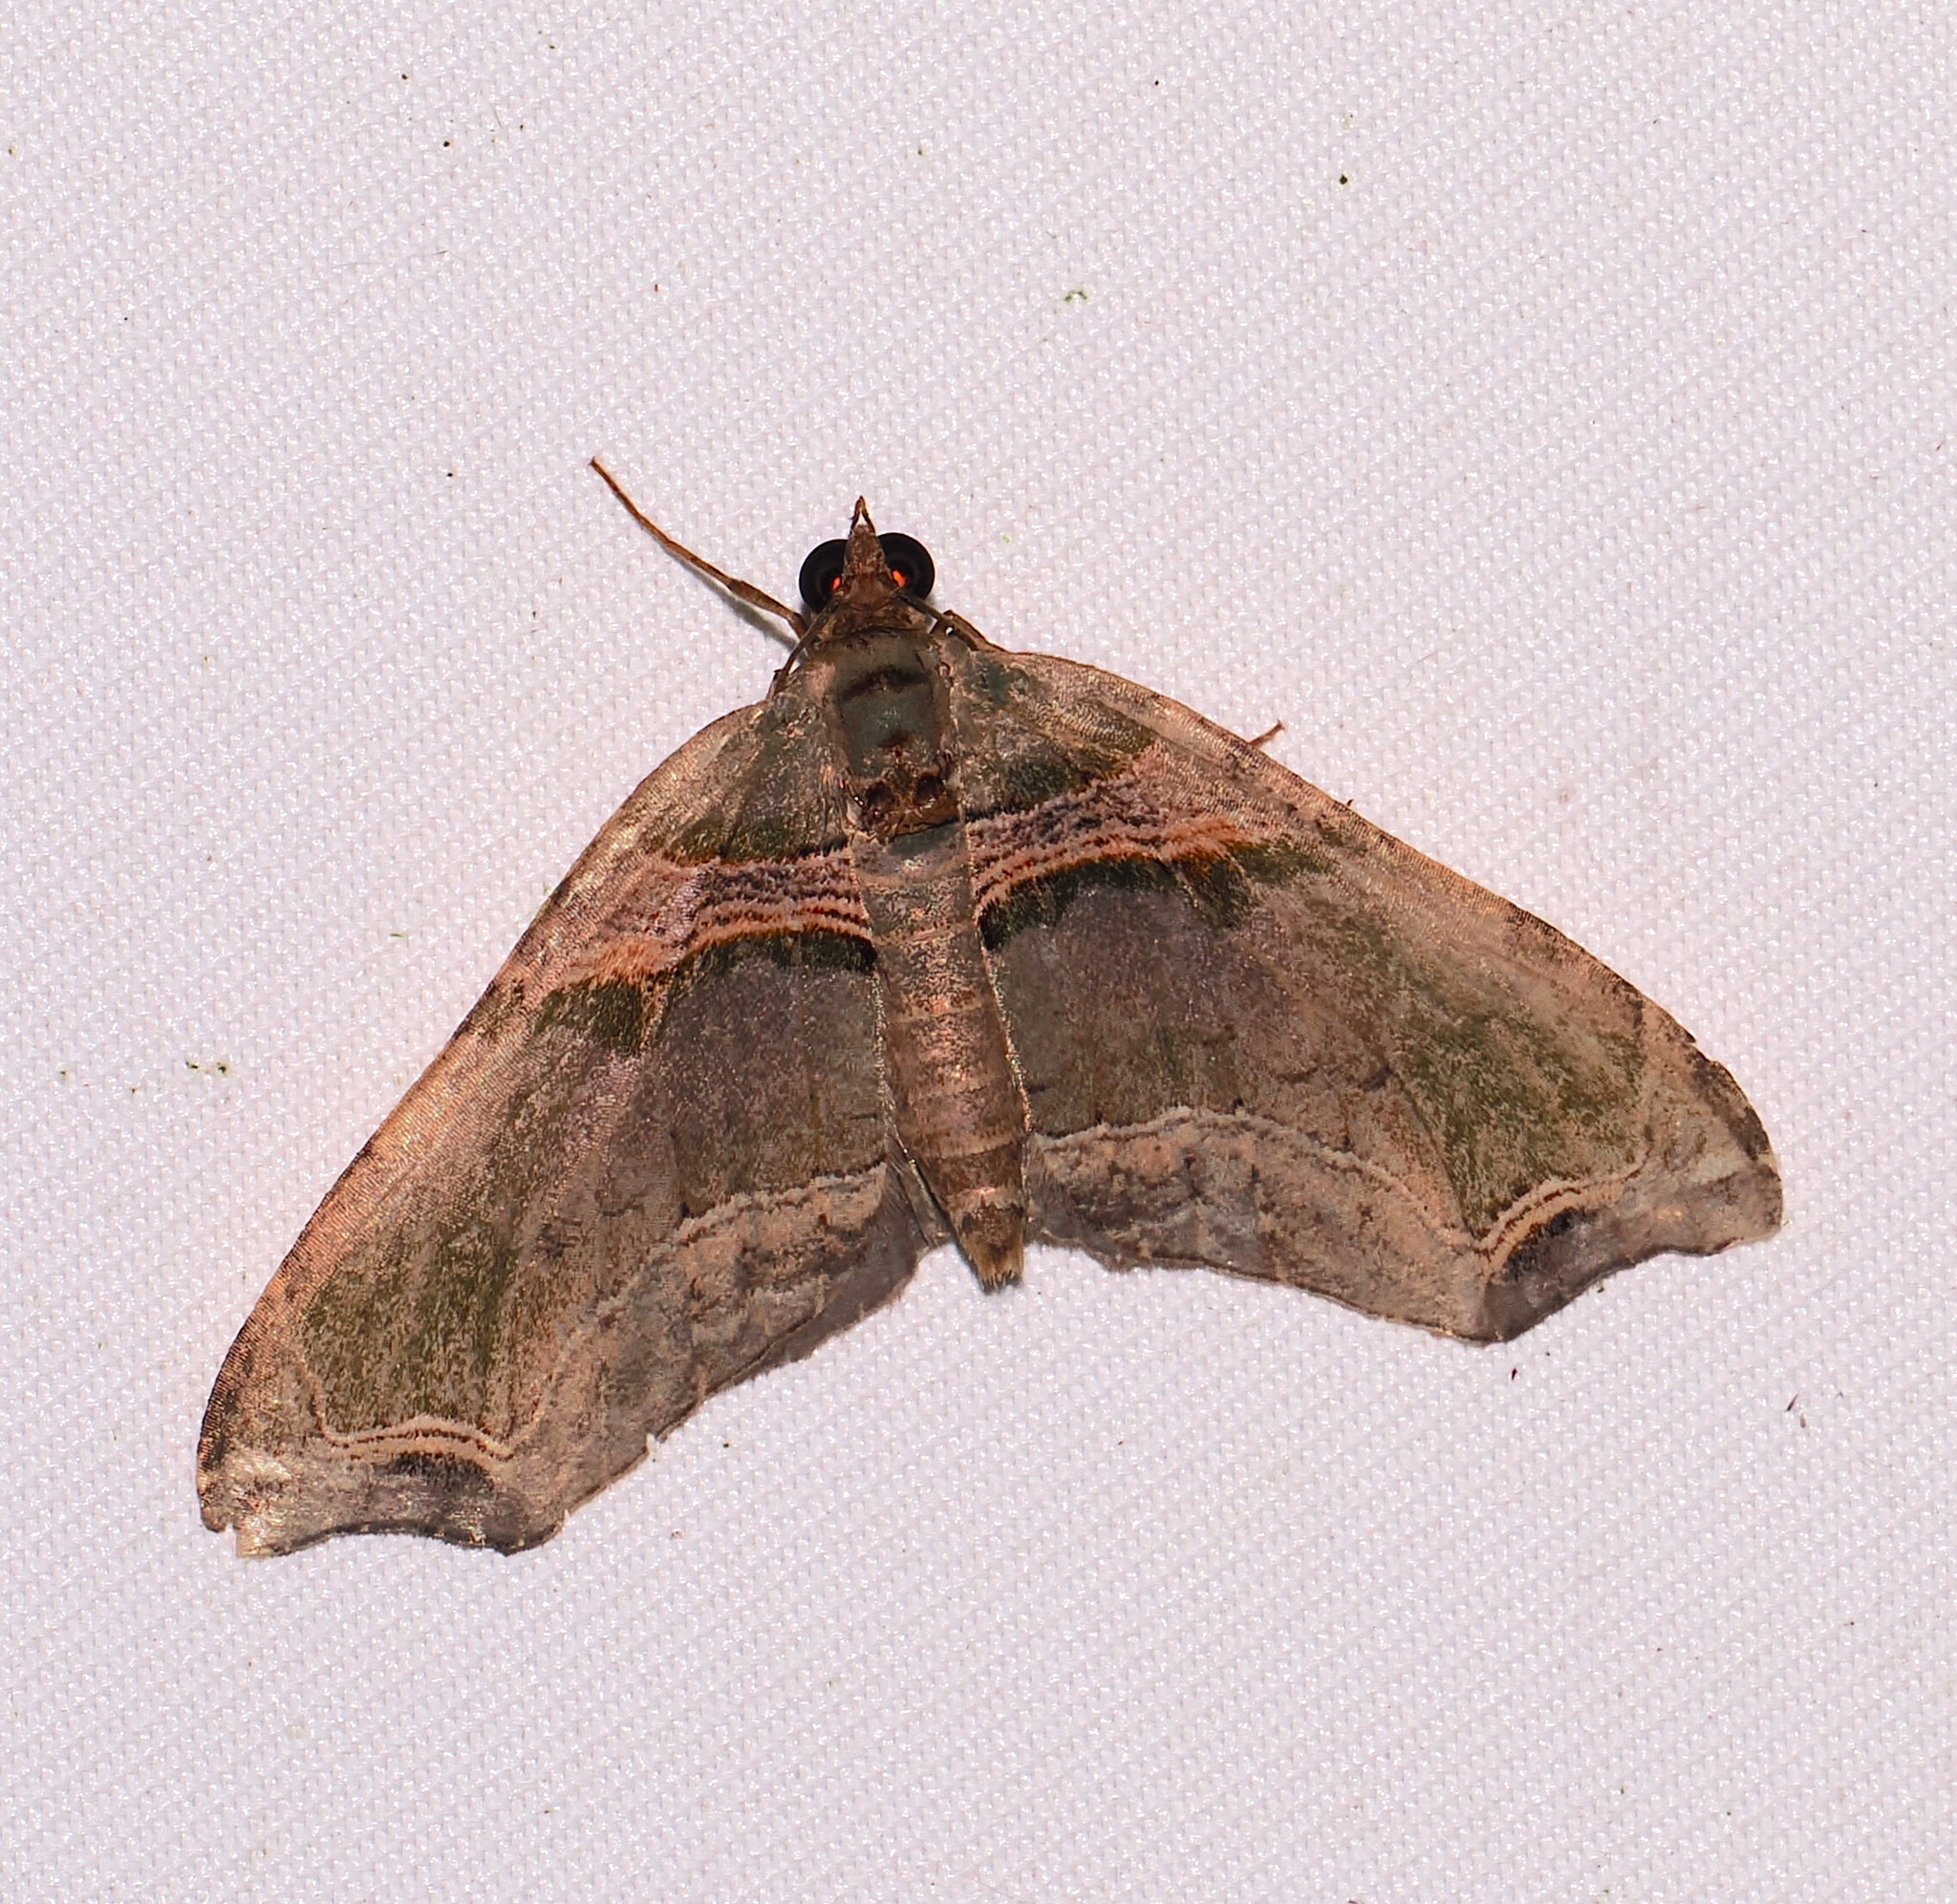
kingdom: Animalia
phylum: Arthropoda
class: Insecta
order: Lepidoptera
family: Geometridae
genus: Oligopleura
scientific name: Oligopleura aulaeata
